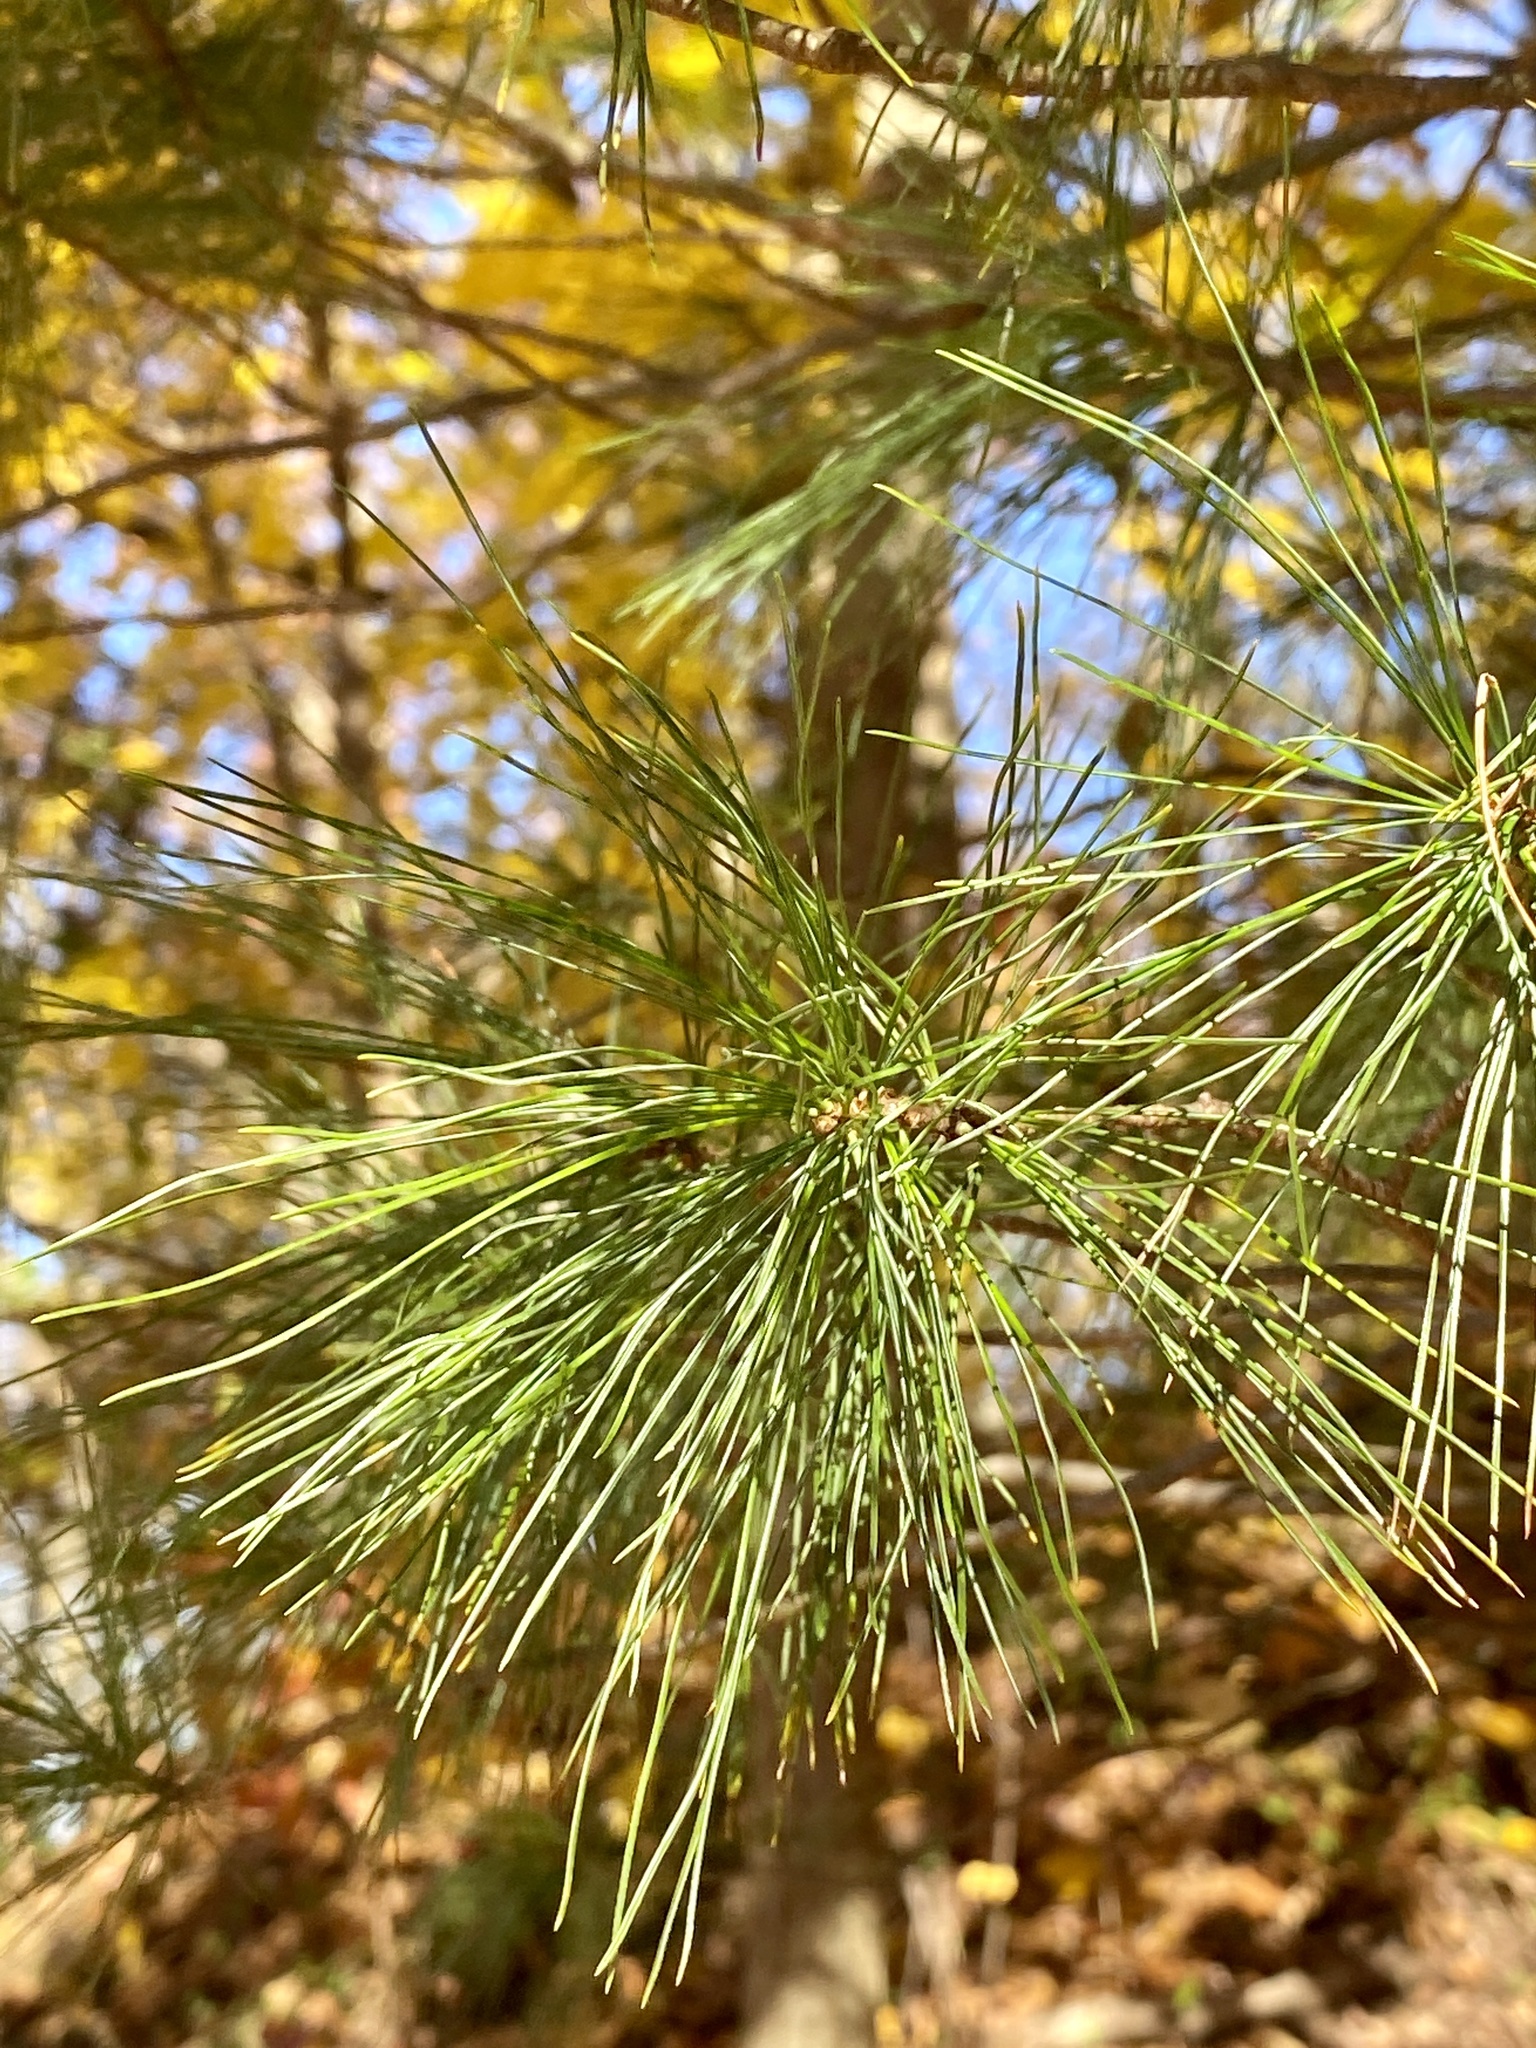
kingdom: Plantae
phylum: Tracheophyta
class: Pinopsida
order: Pinales
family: Pinaceae
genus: Pinus
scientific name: Pinus strobus
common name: Weymouth pine
